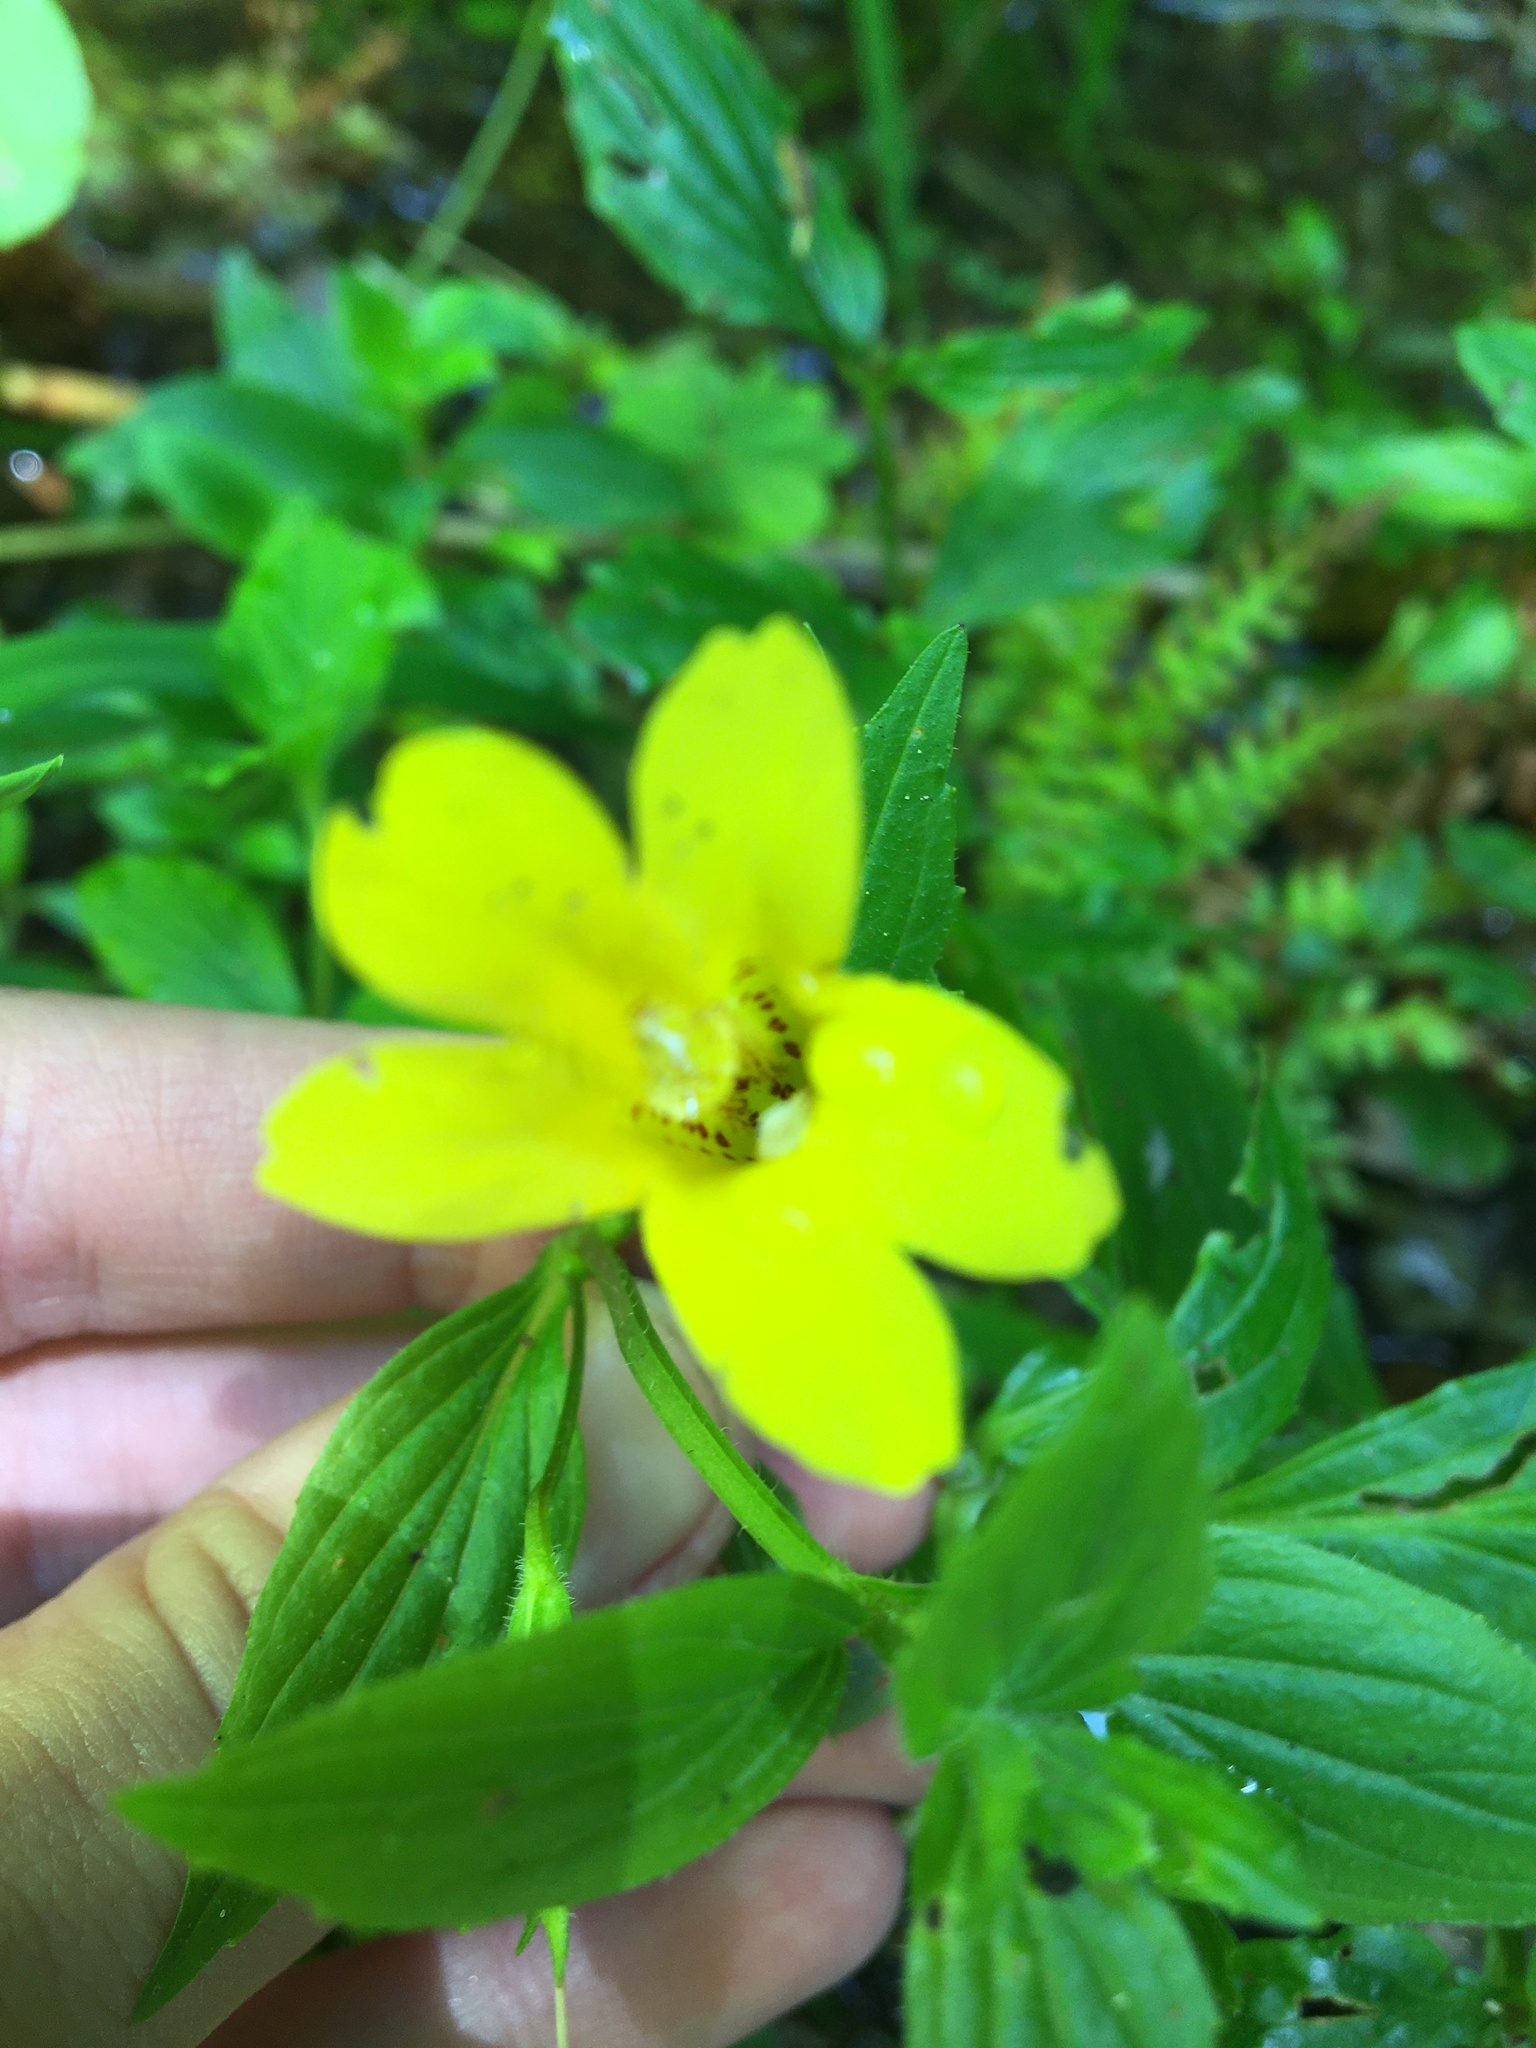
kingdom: Plantae
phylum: Tracheophyta
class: Magnoliopsida
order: Lamiales
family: Phrymaceae
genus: Erythranthe
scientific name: Erythranthe dentata
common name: Coastal monkeyflower
